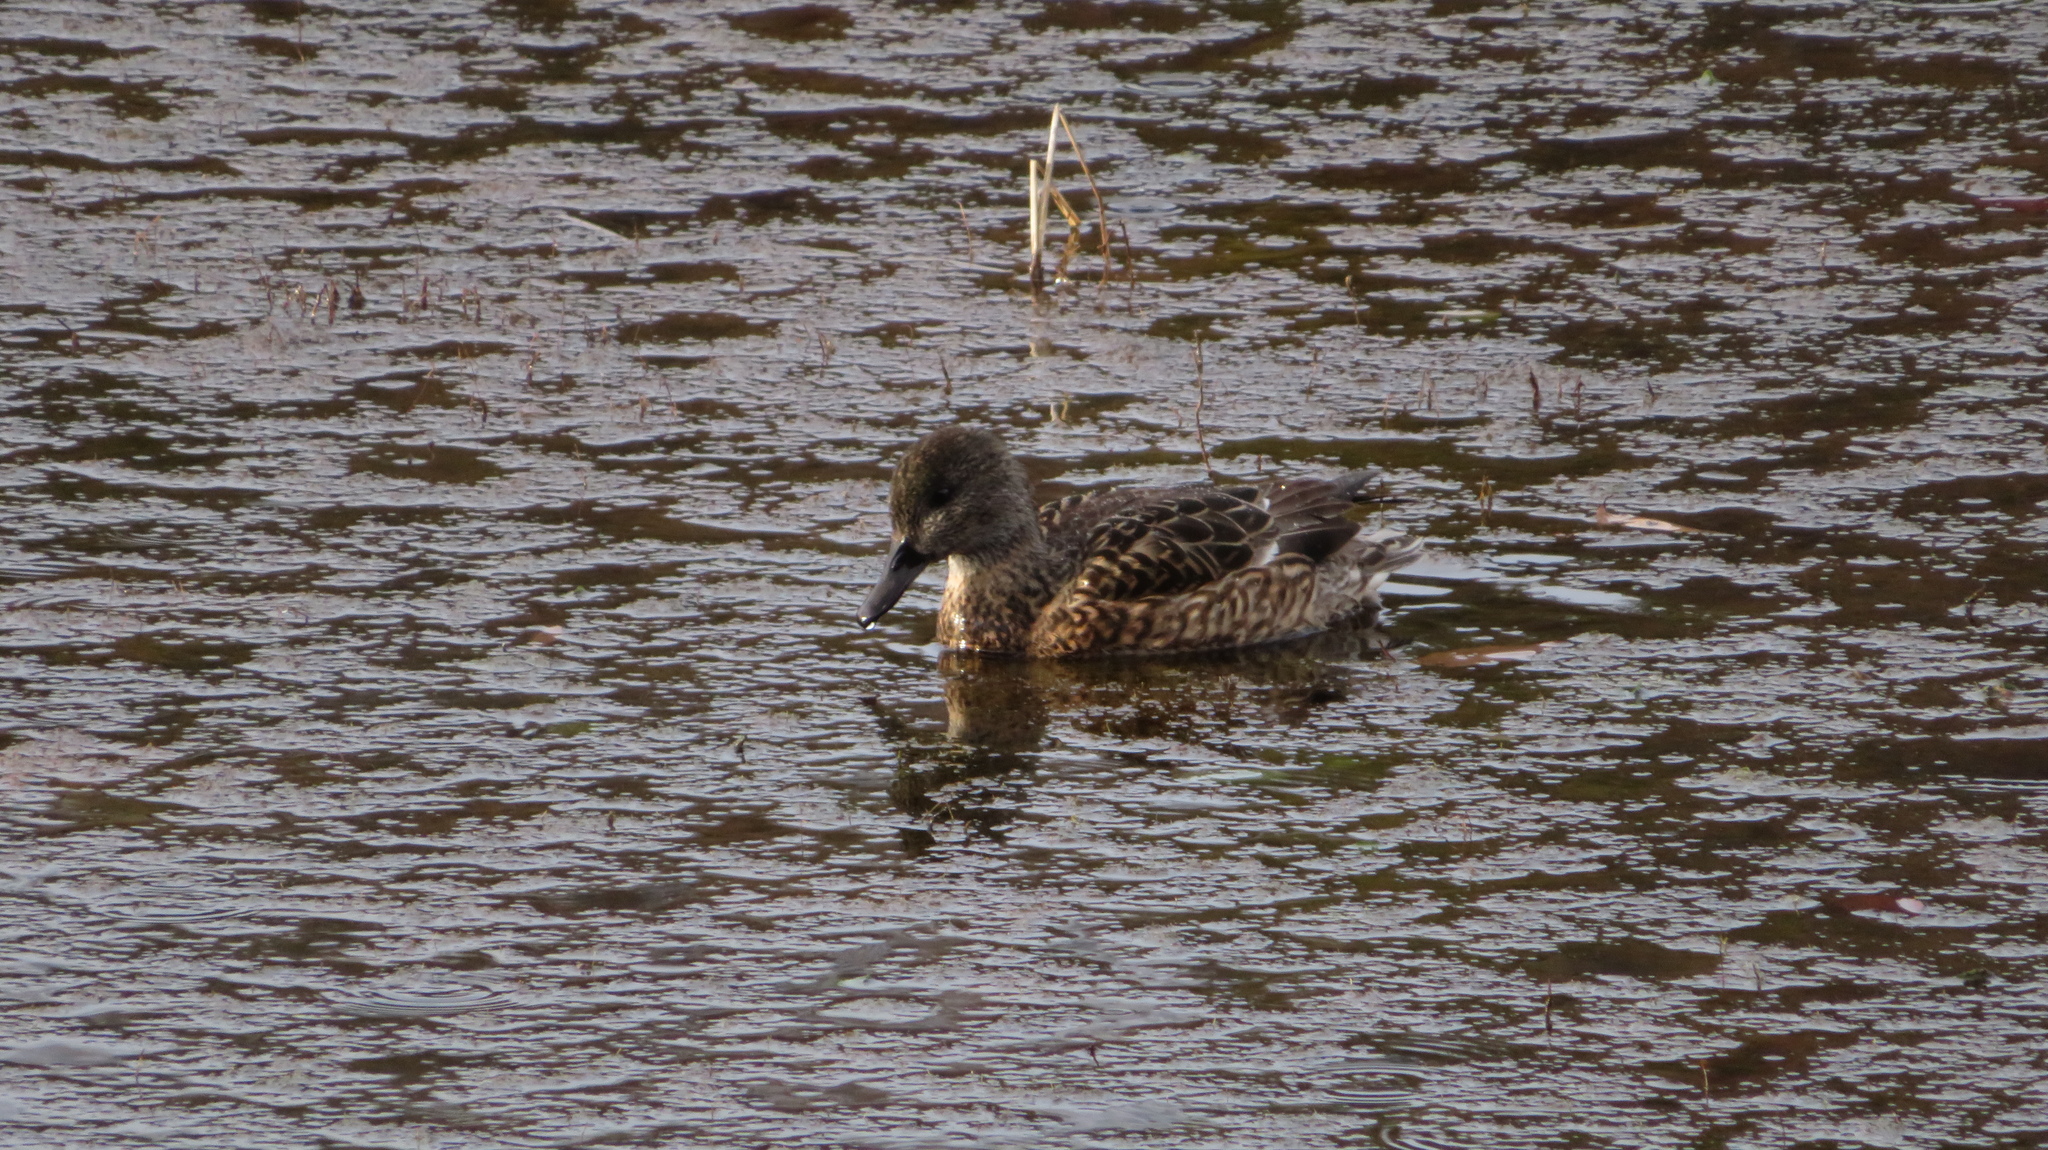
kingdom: Animalia
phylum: Chordata
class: Aves
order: Anseriformes
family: Anatidae
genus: Mareca
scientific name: Mareca falcata
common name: Falcated duck
